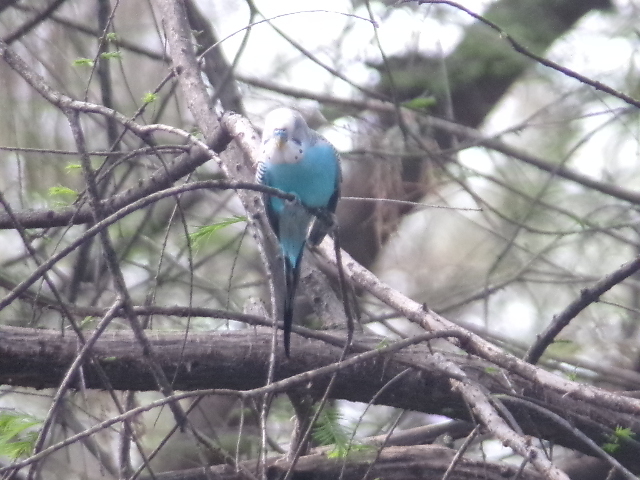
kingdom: Animalia
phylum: Chordata
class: Aves
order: Psittaciformes
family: Psittacidae
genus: Melopsittacus
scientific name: Melopsittacus undulatus
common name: Budgerigar
